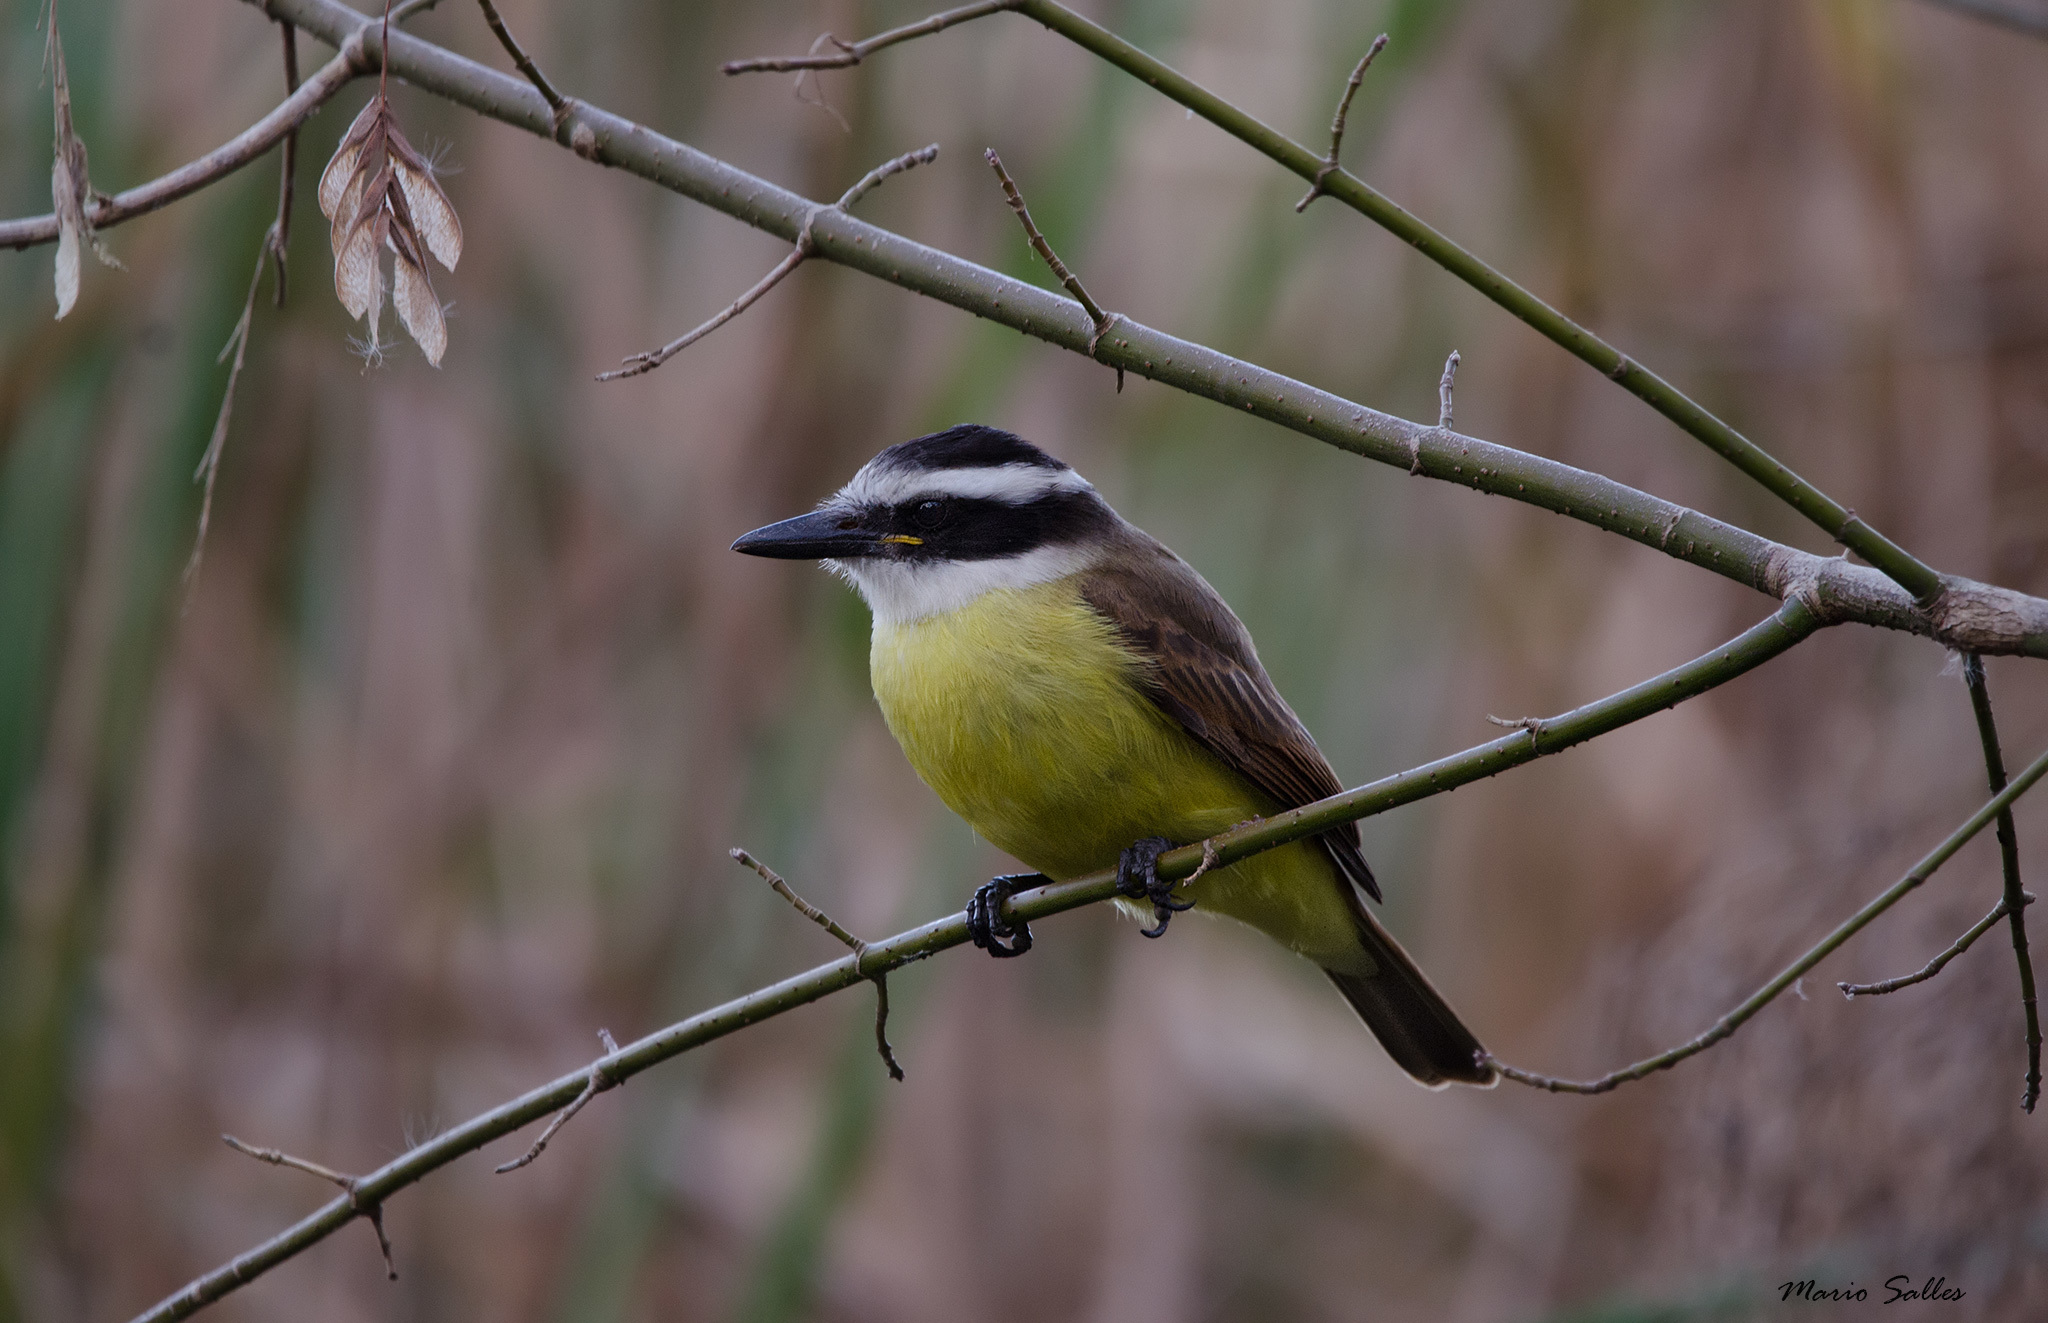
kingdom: Animalia
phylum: Chordata
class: Aves
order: Passeriformes
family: Tyrannidae
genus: Pitangus
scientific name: Pitangus sulphuratus
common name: Great kiskadee
